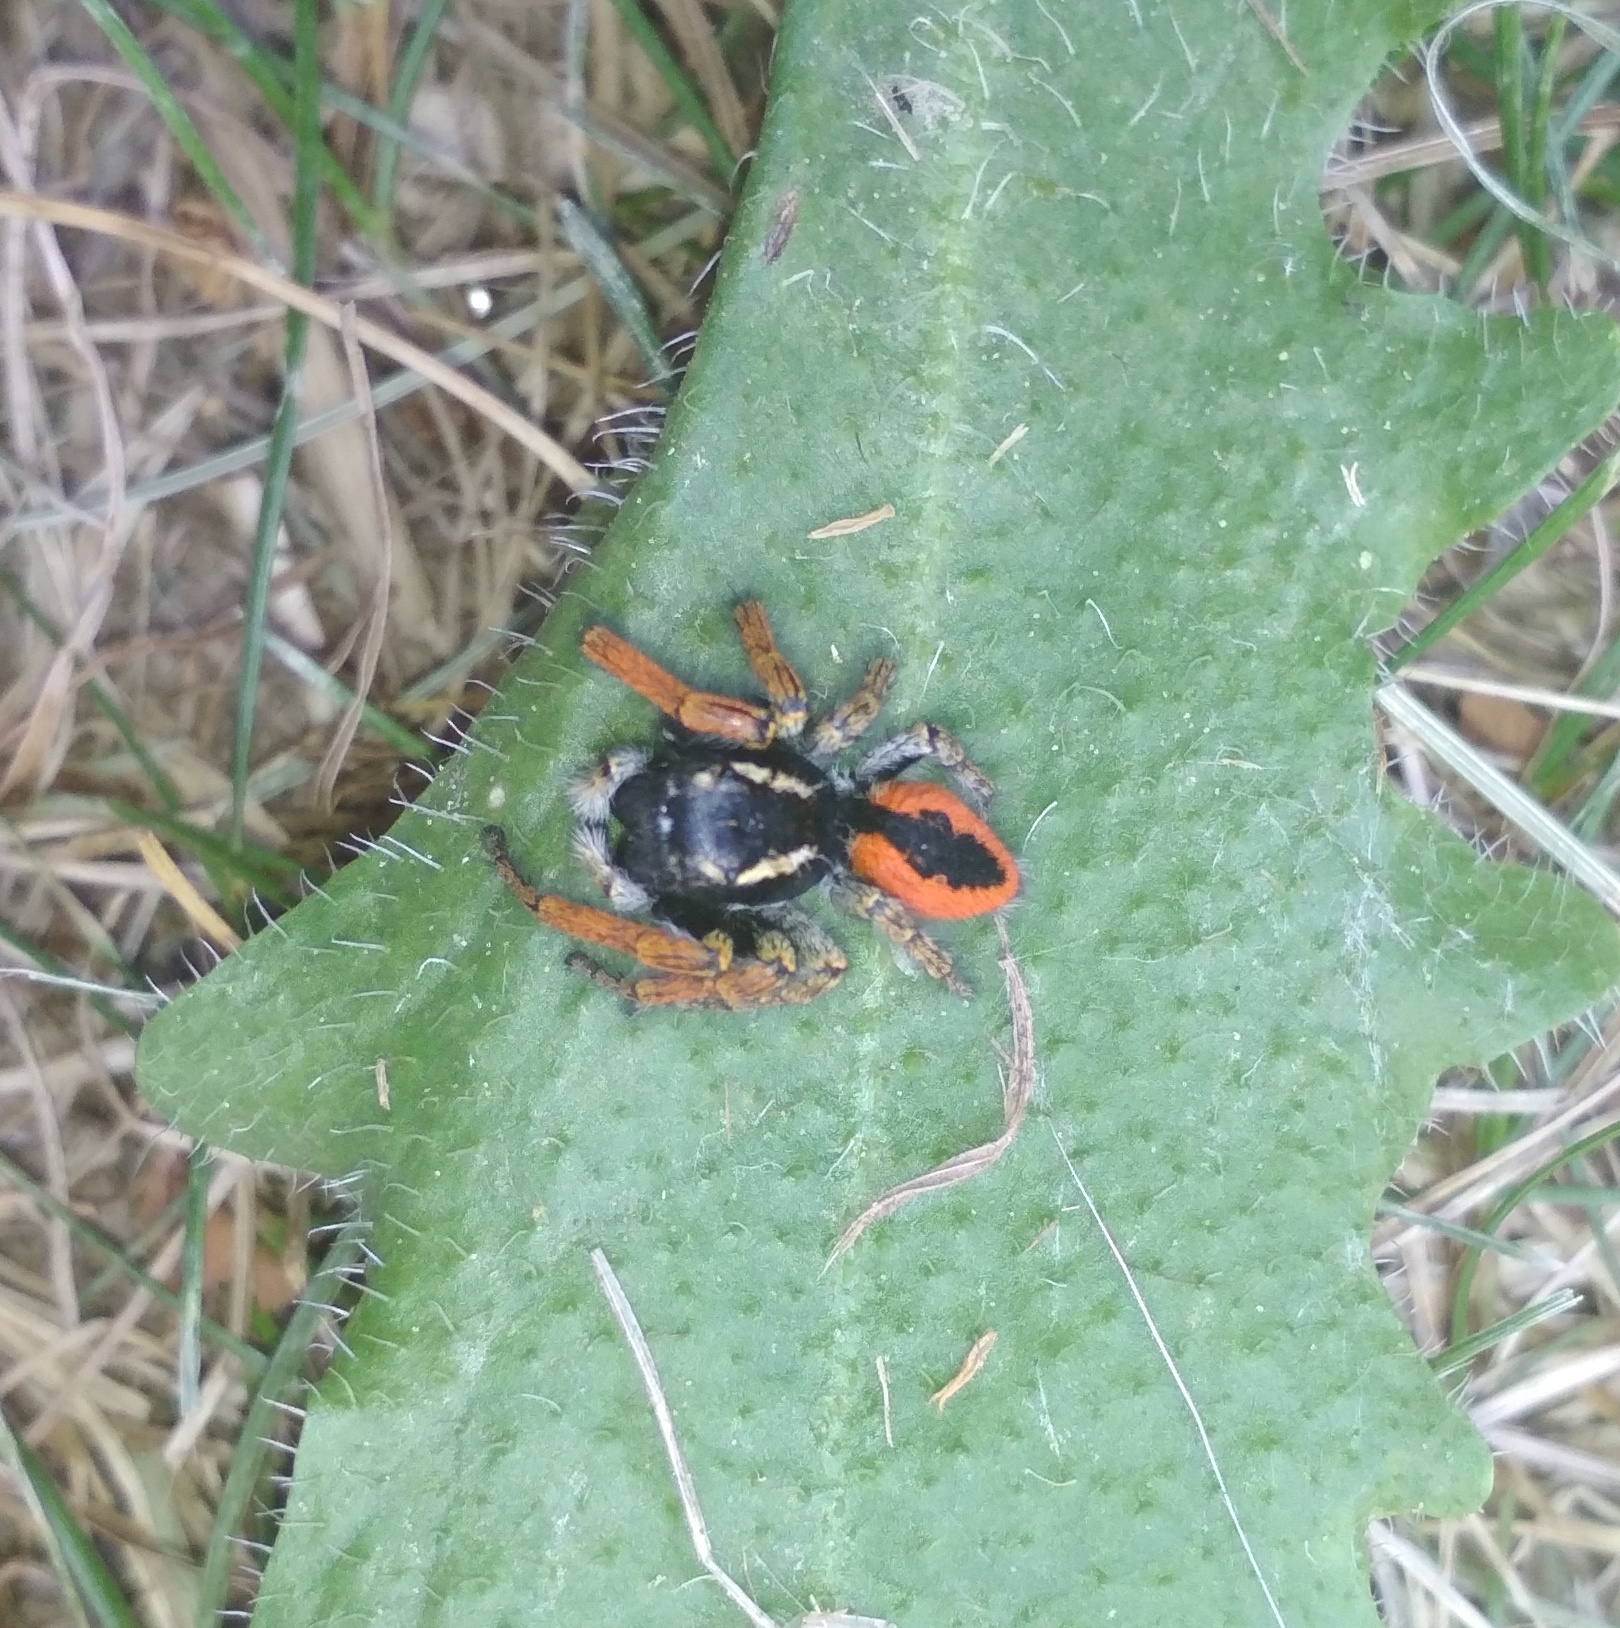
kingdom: Animalia
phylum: Arthropoda
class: Arachnida
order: Araneae
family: Salticidae
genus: Philaeus
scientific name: Philaeus chrysops
